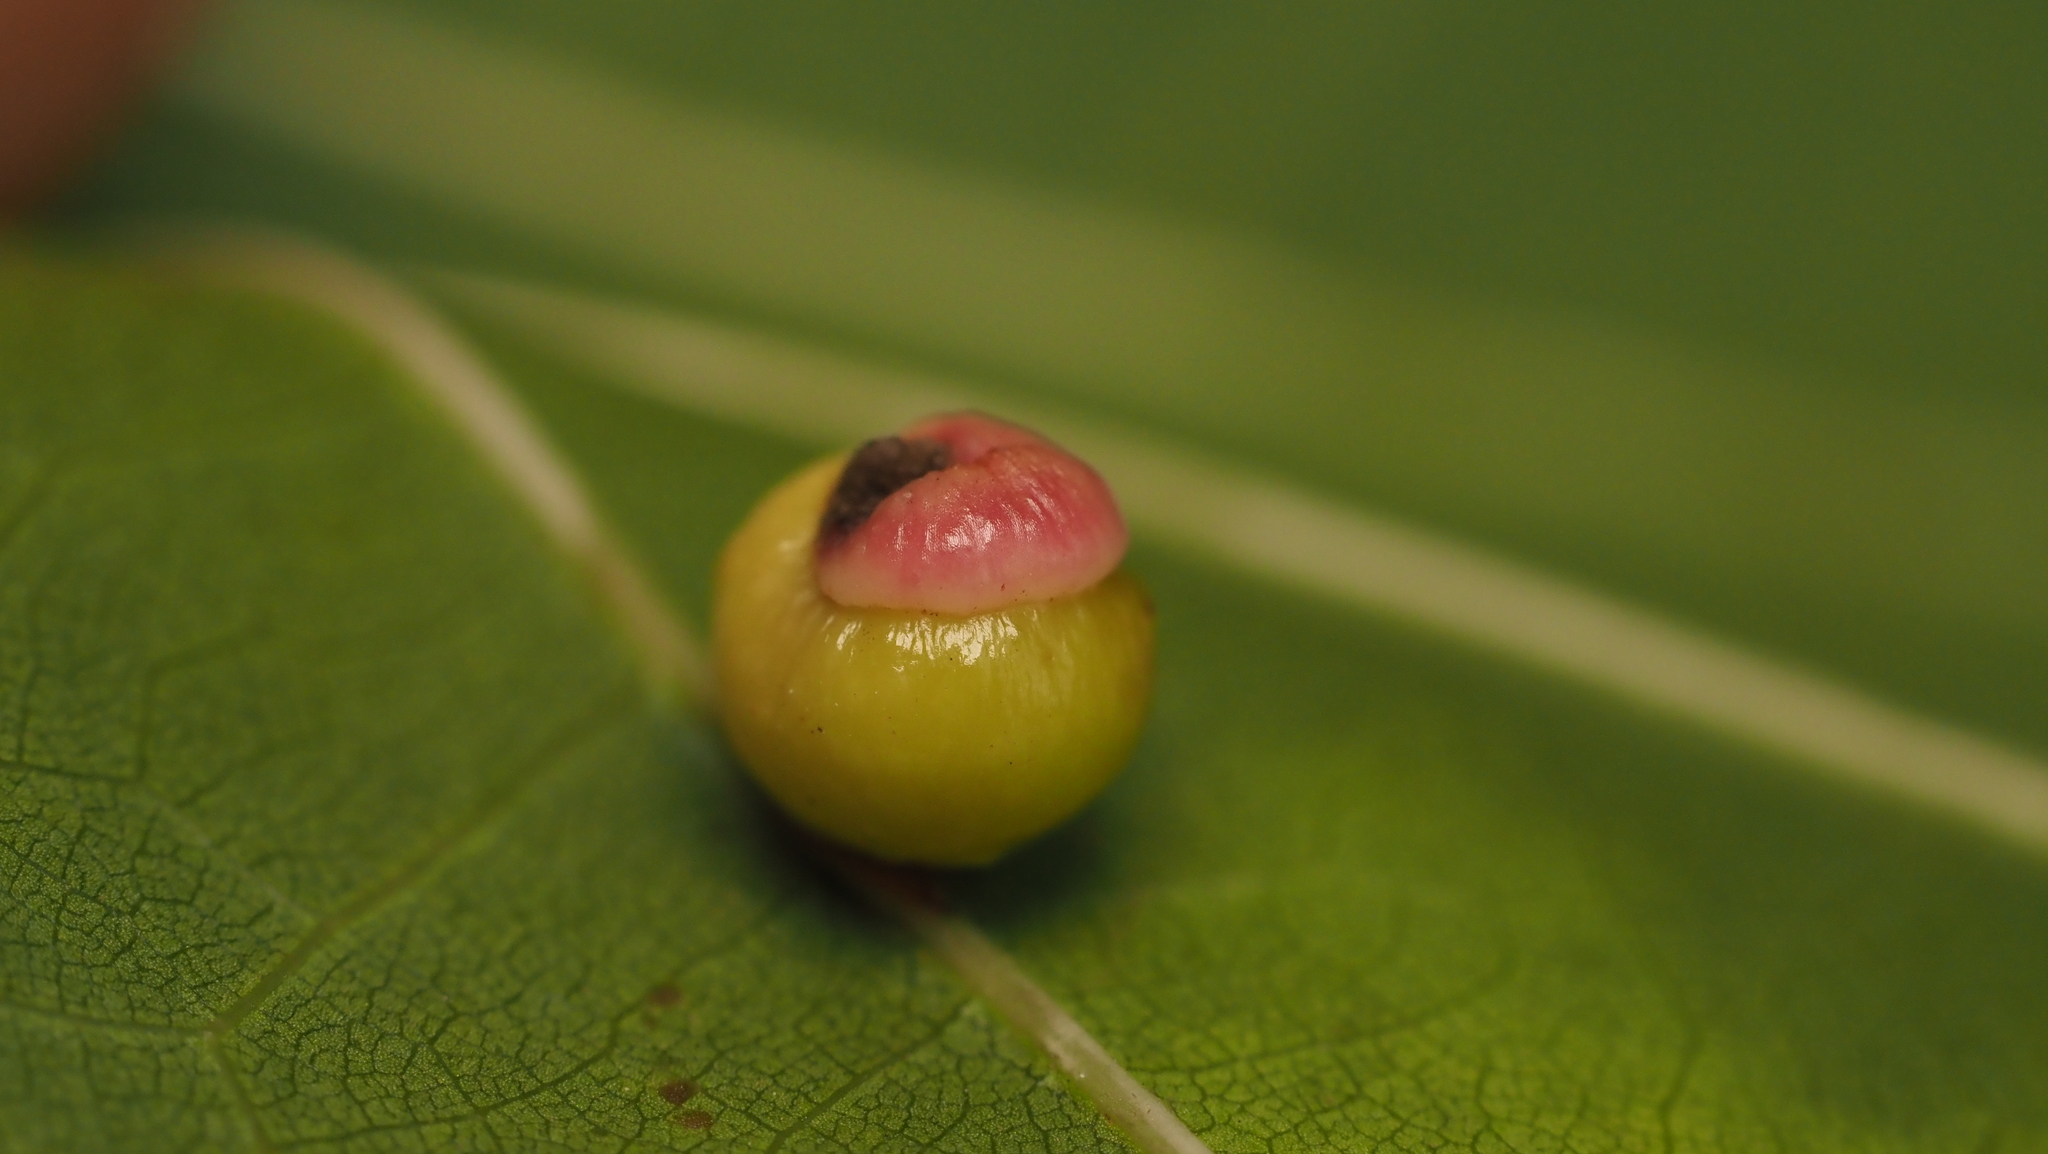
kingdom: Animalia
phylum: Arthropoda
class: Insecta
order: Hymenoptera
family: Cynipidae
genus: Kokkocynips
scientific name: Kokkocynips rileyi
